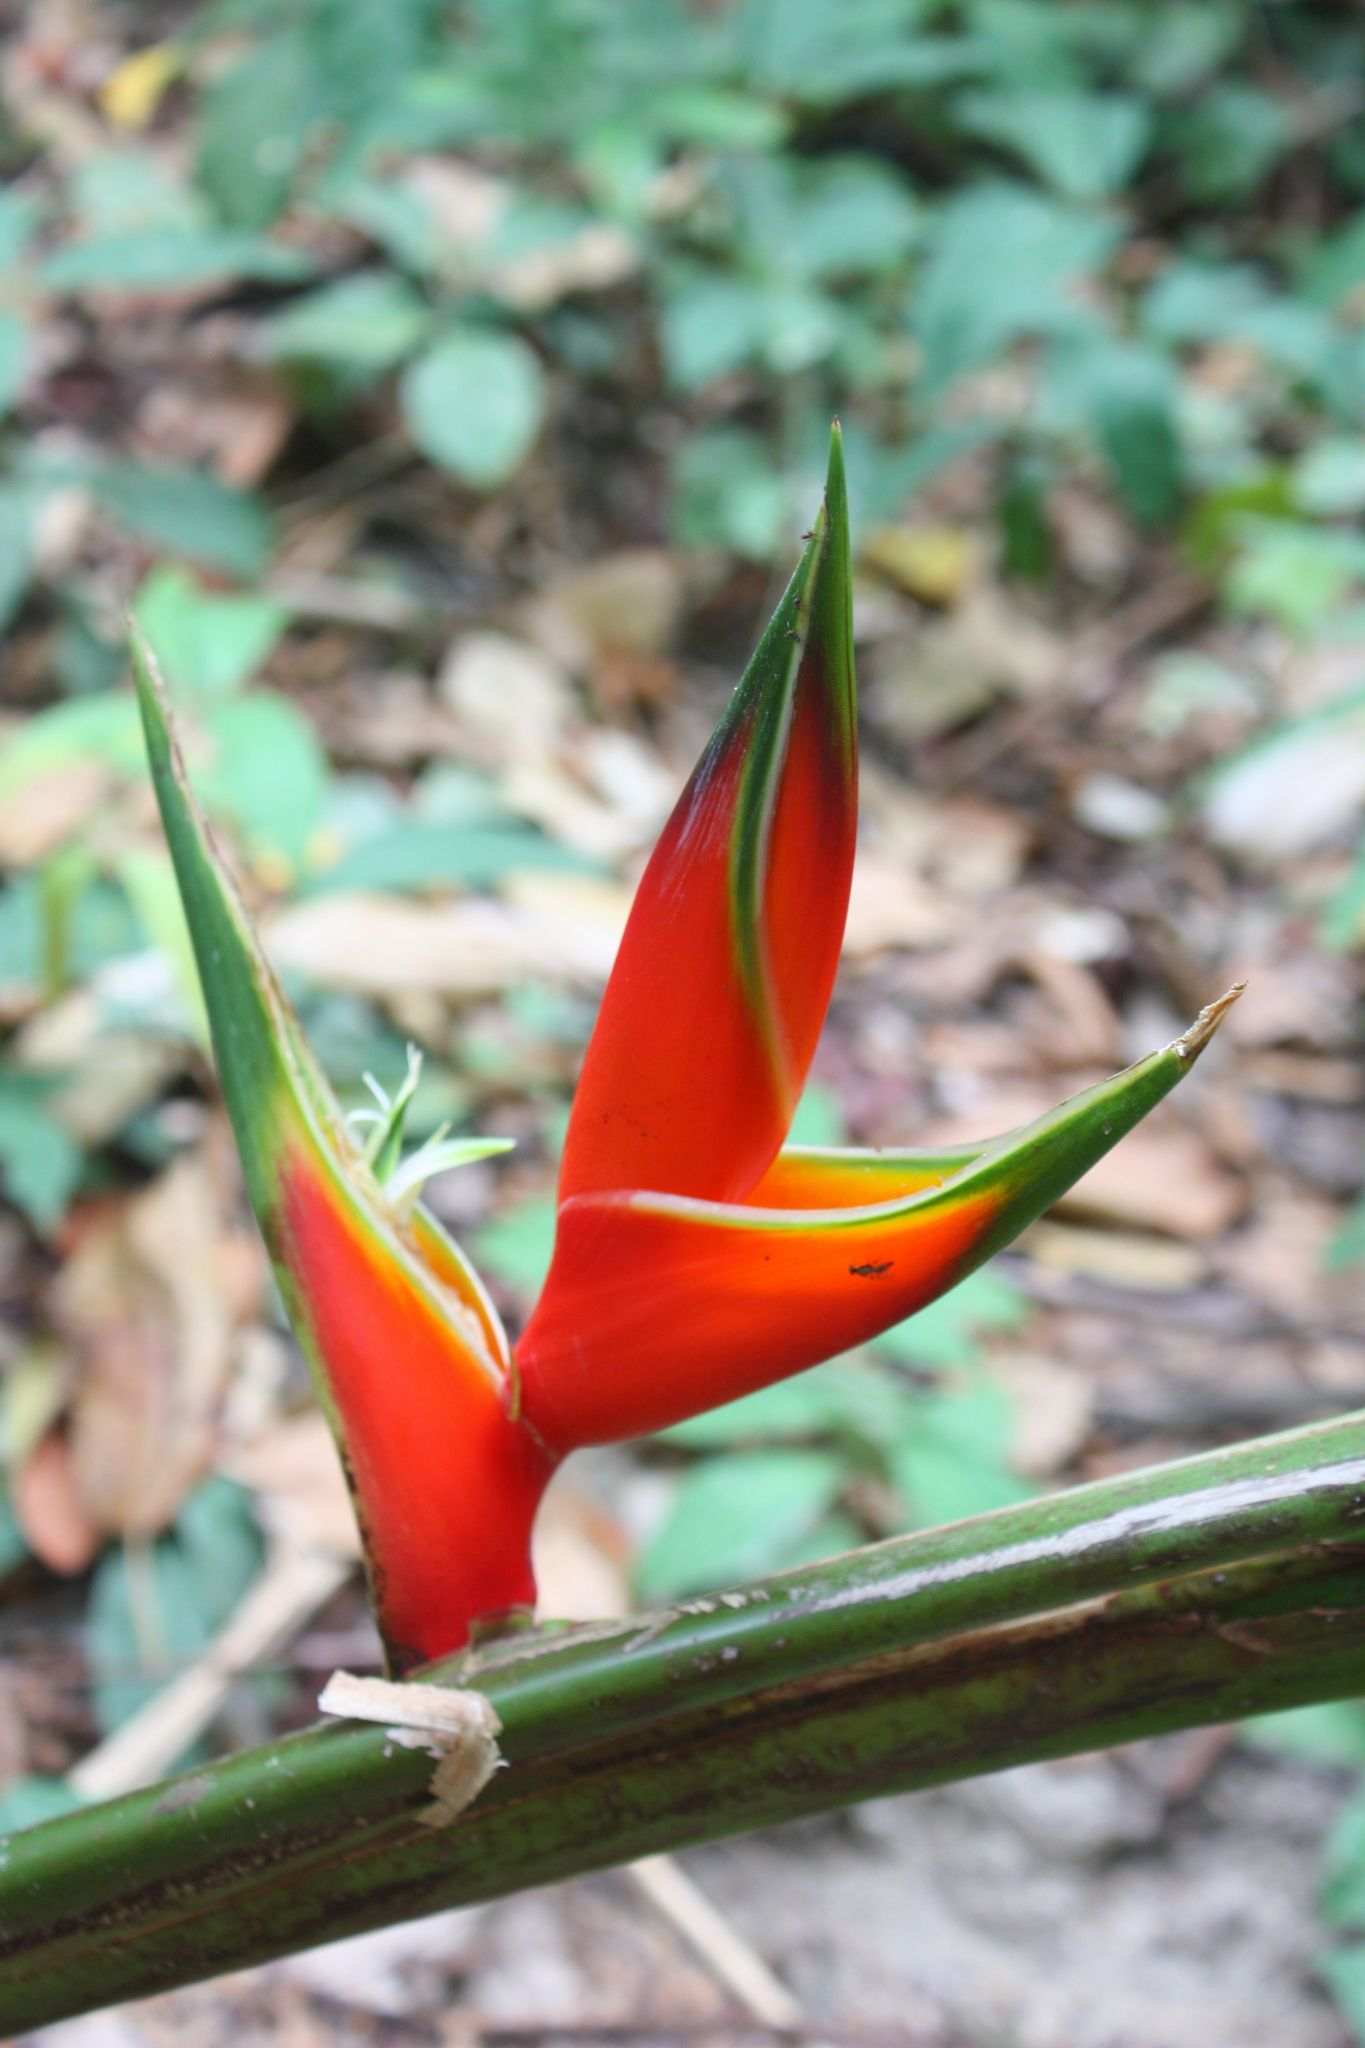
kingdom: Plantae
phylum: Tracheophyta
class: Liliopsida
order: Zingiberales
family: Heliconiaceae
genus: Heliconia
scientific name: Heliconia bihai
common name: Macaw flower
